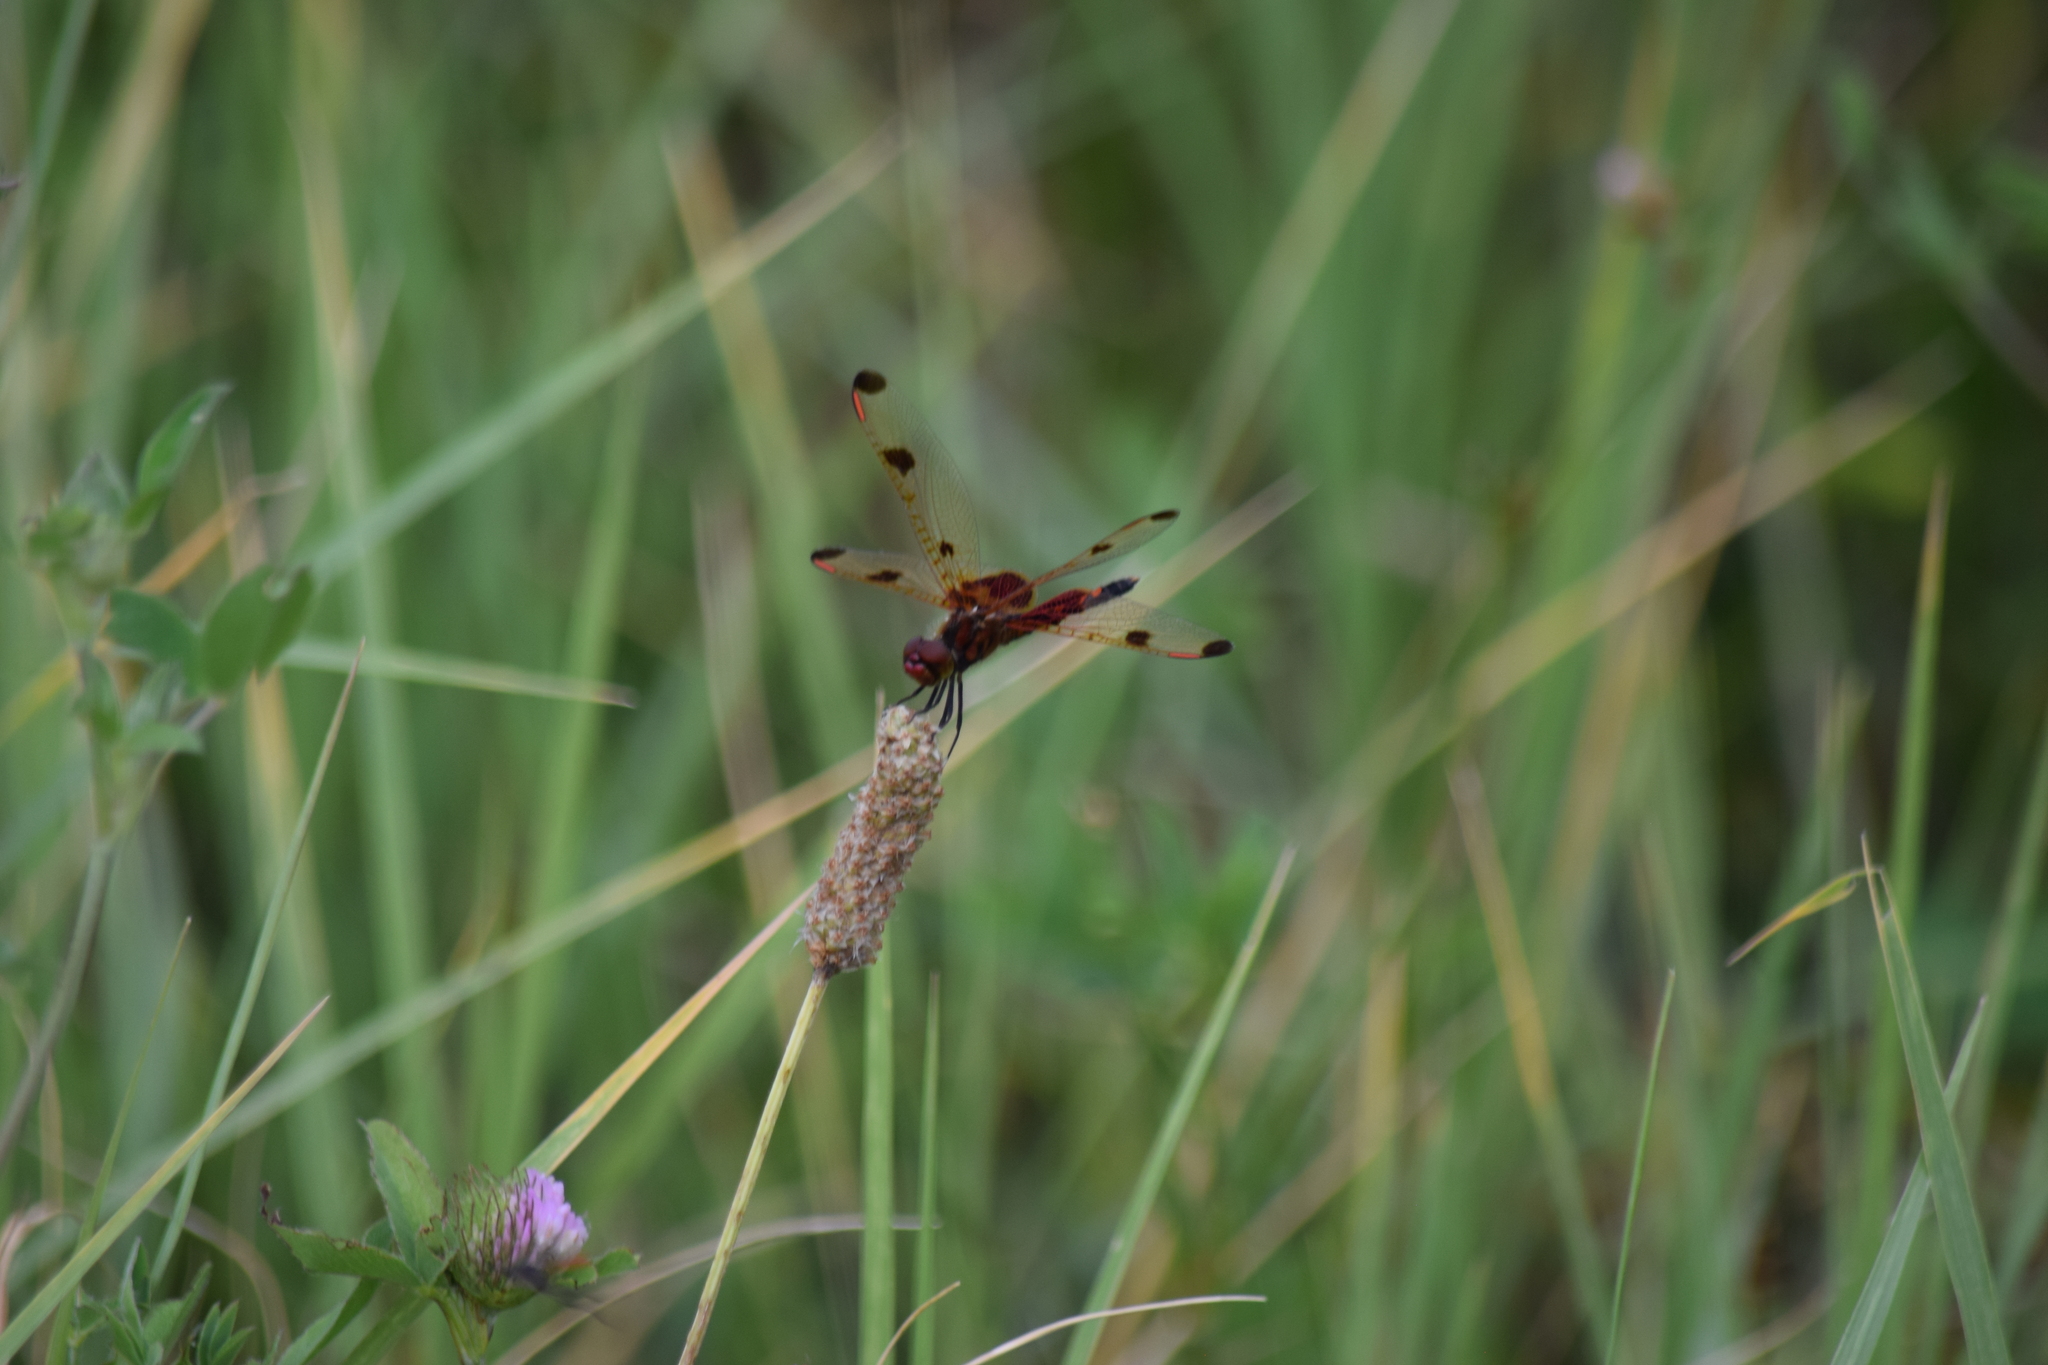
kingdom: Animalia
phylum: Arthropoda
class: Insecta
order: Odonata
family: Libellulidae
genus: Celithemis
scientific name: Celithemis elisa
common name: Calico pennant
